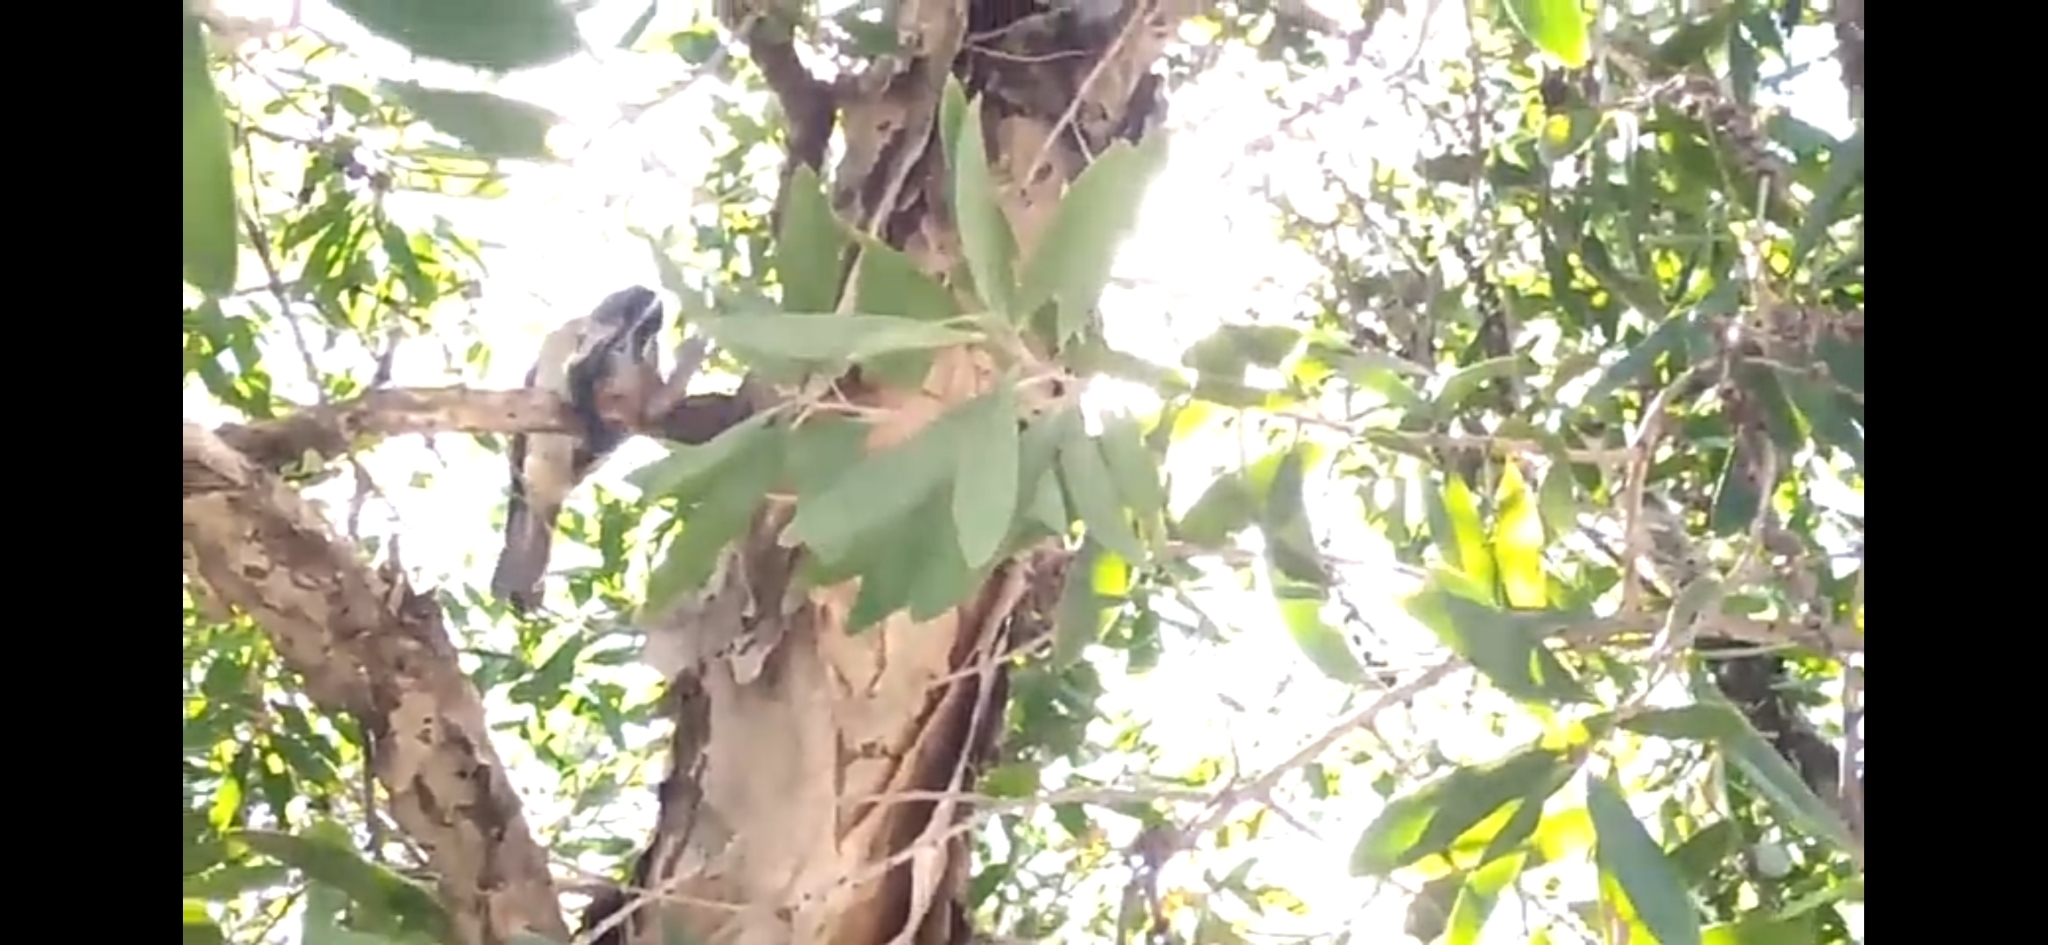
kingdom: Animalia
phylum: Chordata
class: Aves
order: Passeriformes
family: Cracticidae
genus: Cracticus
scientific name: Cracticus torquatus
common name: Grey butcherbird
